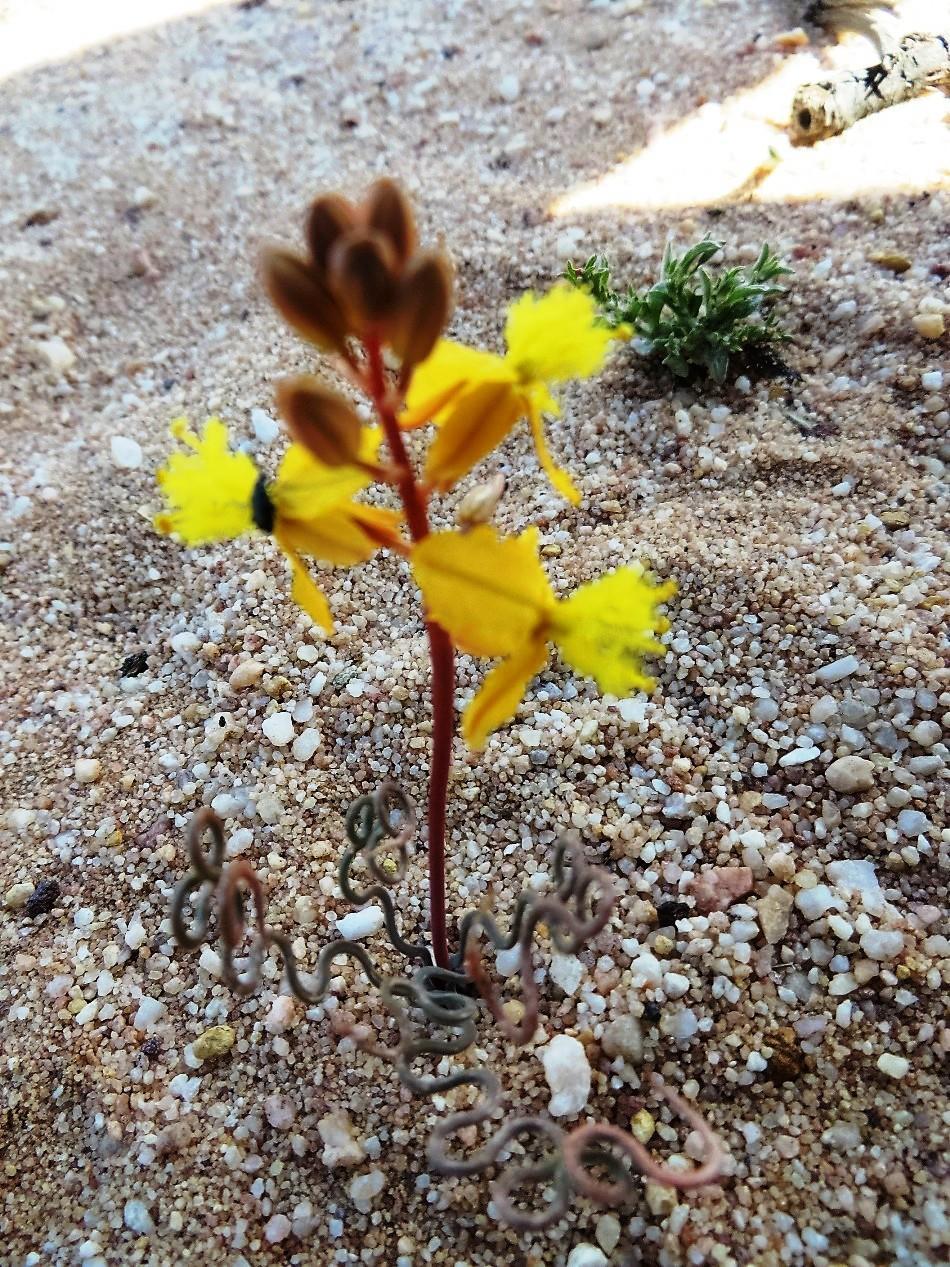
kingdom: Plantae
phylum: Tracheophyta
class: Liliopsida
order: Asparagales
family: Asphodelaceae
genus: Bulbine
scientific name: Bulbine torta
